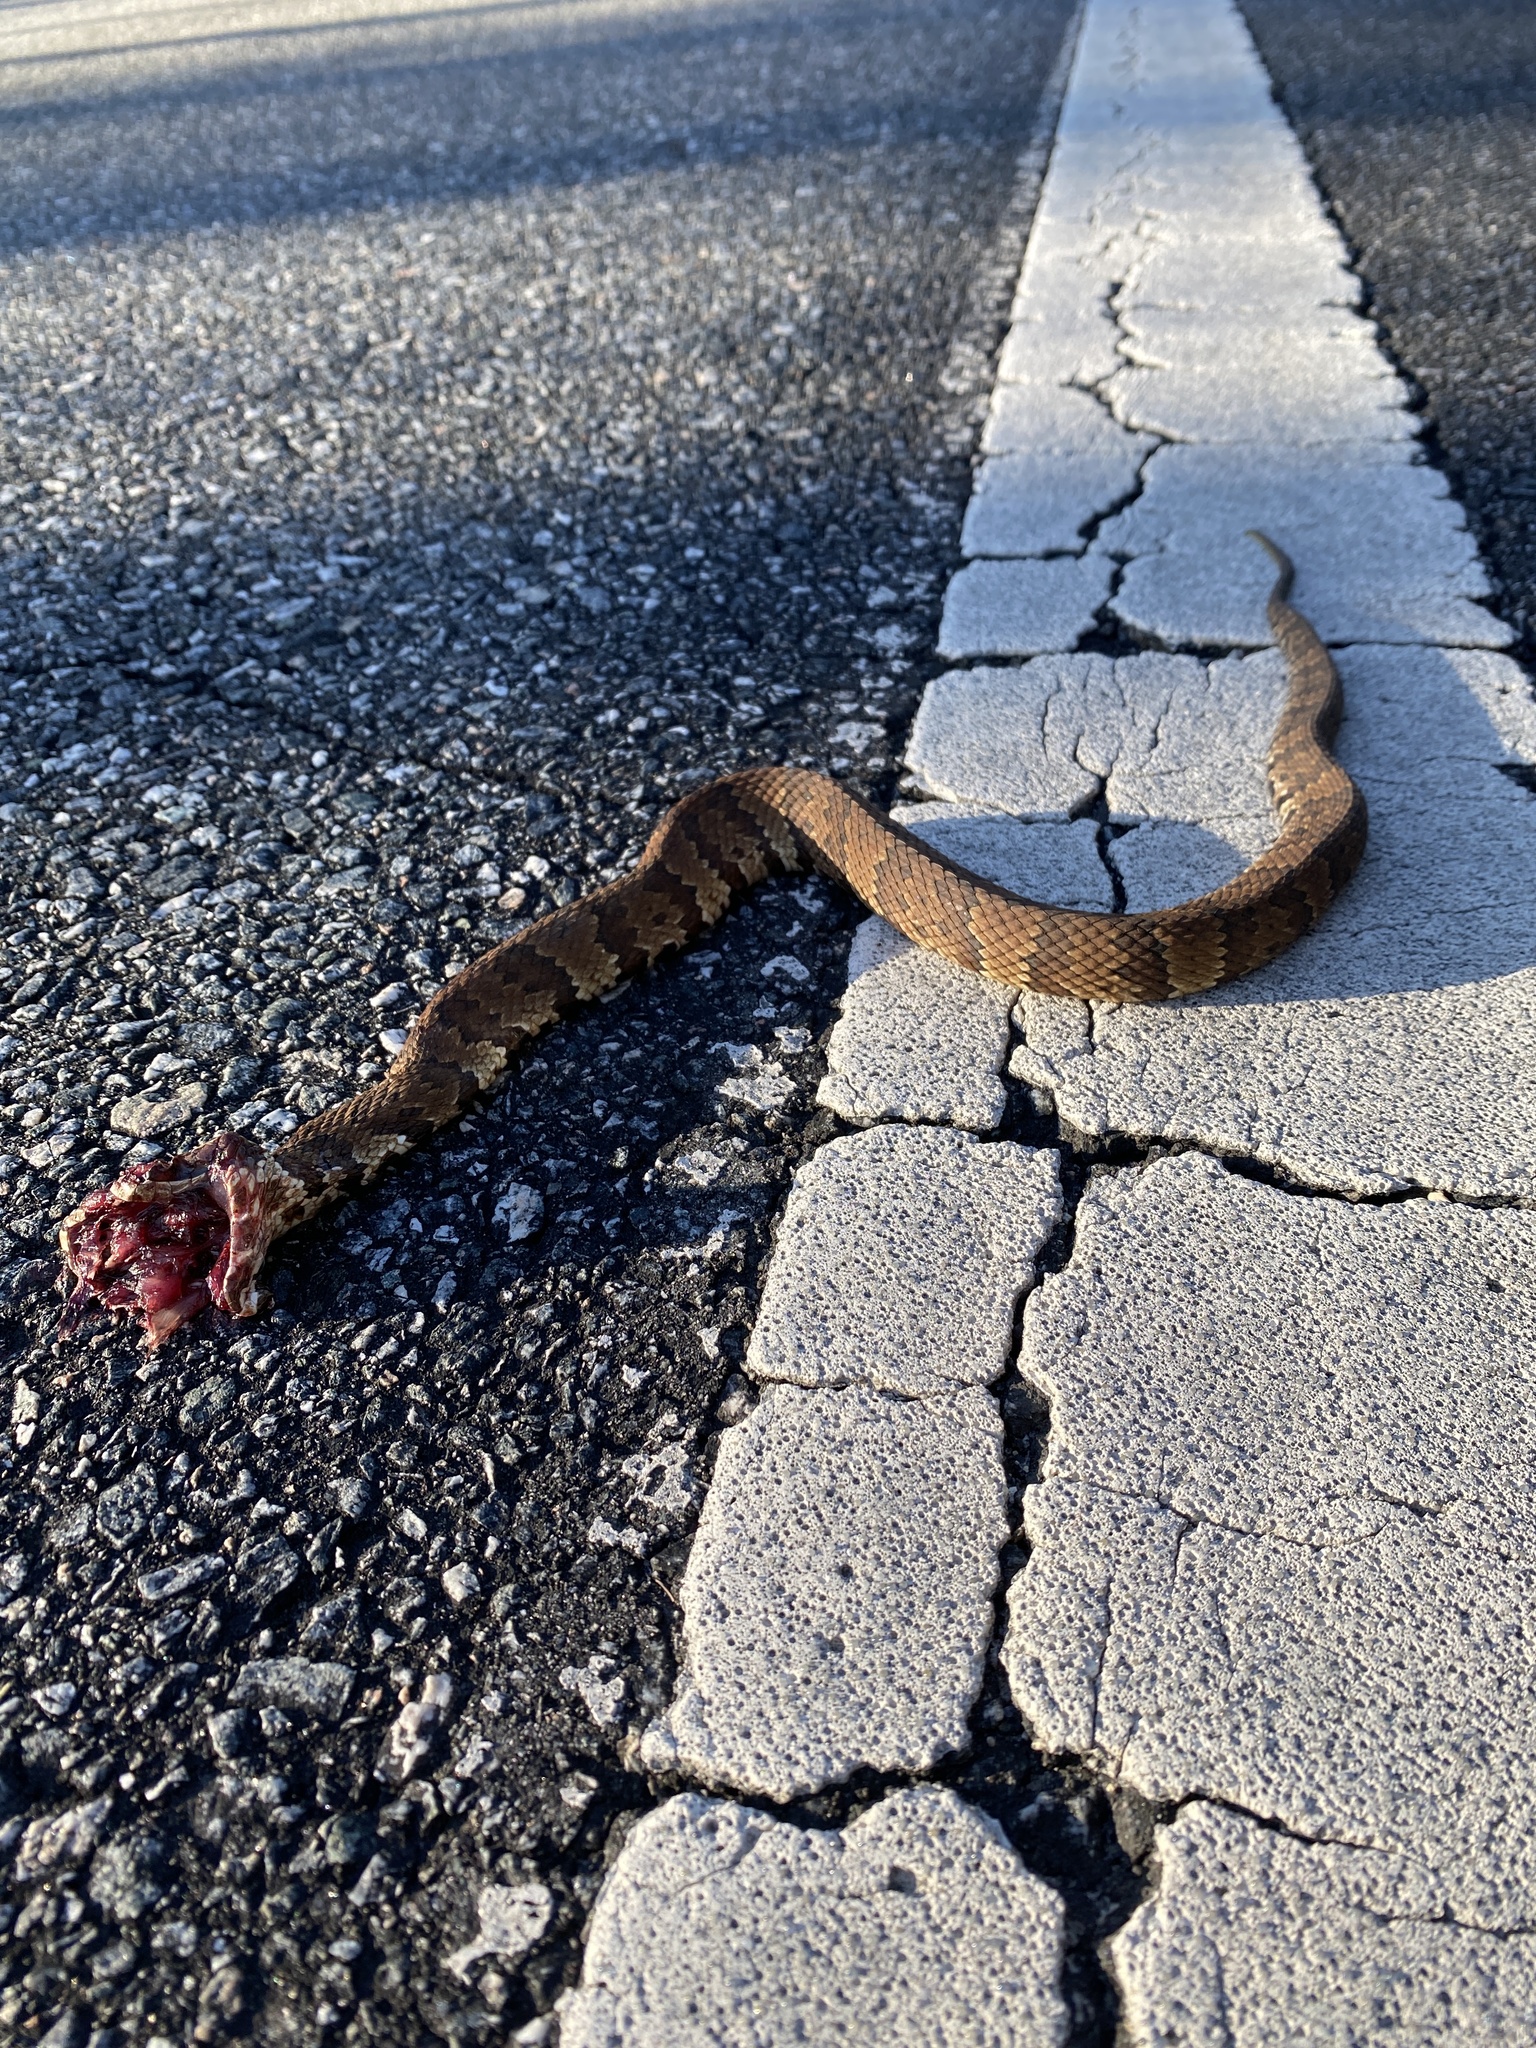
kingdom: Animalia
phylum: Chordata
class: Squamata
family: Viperidae
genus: Agkistrodon
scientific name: Agkistrodon conanti
